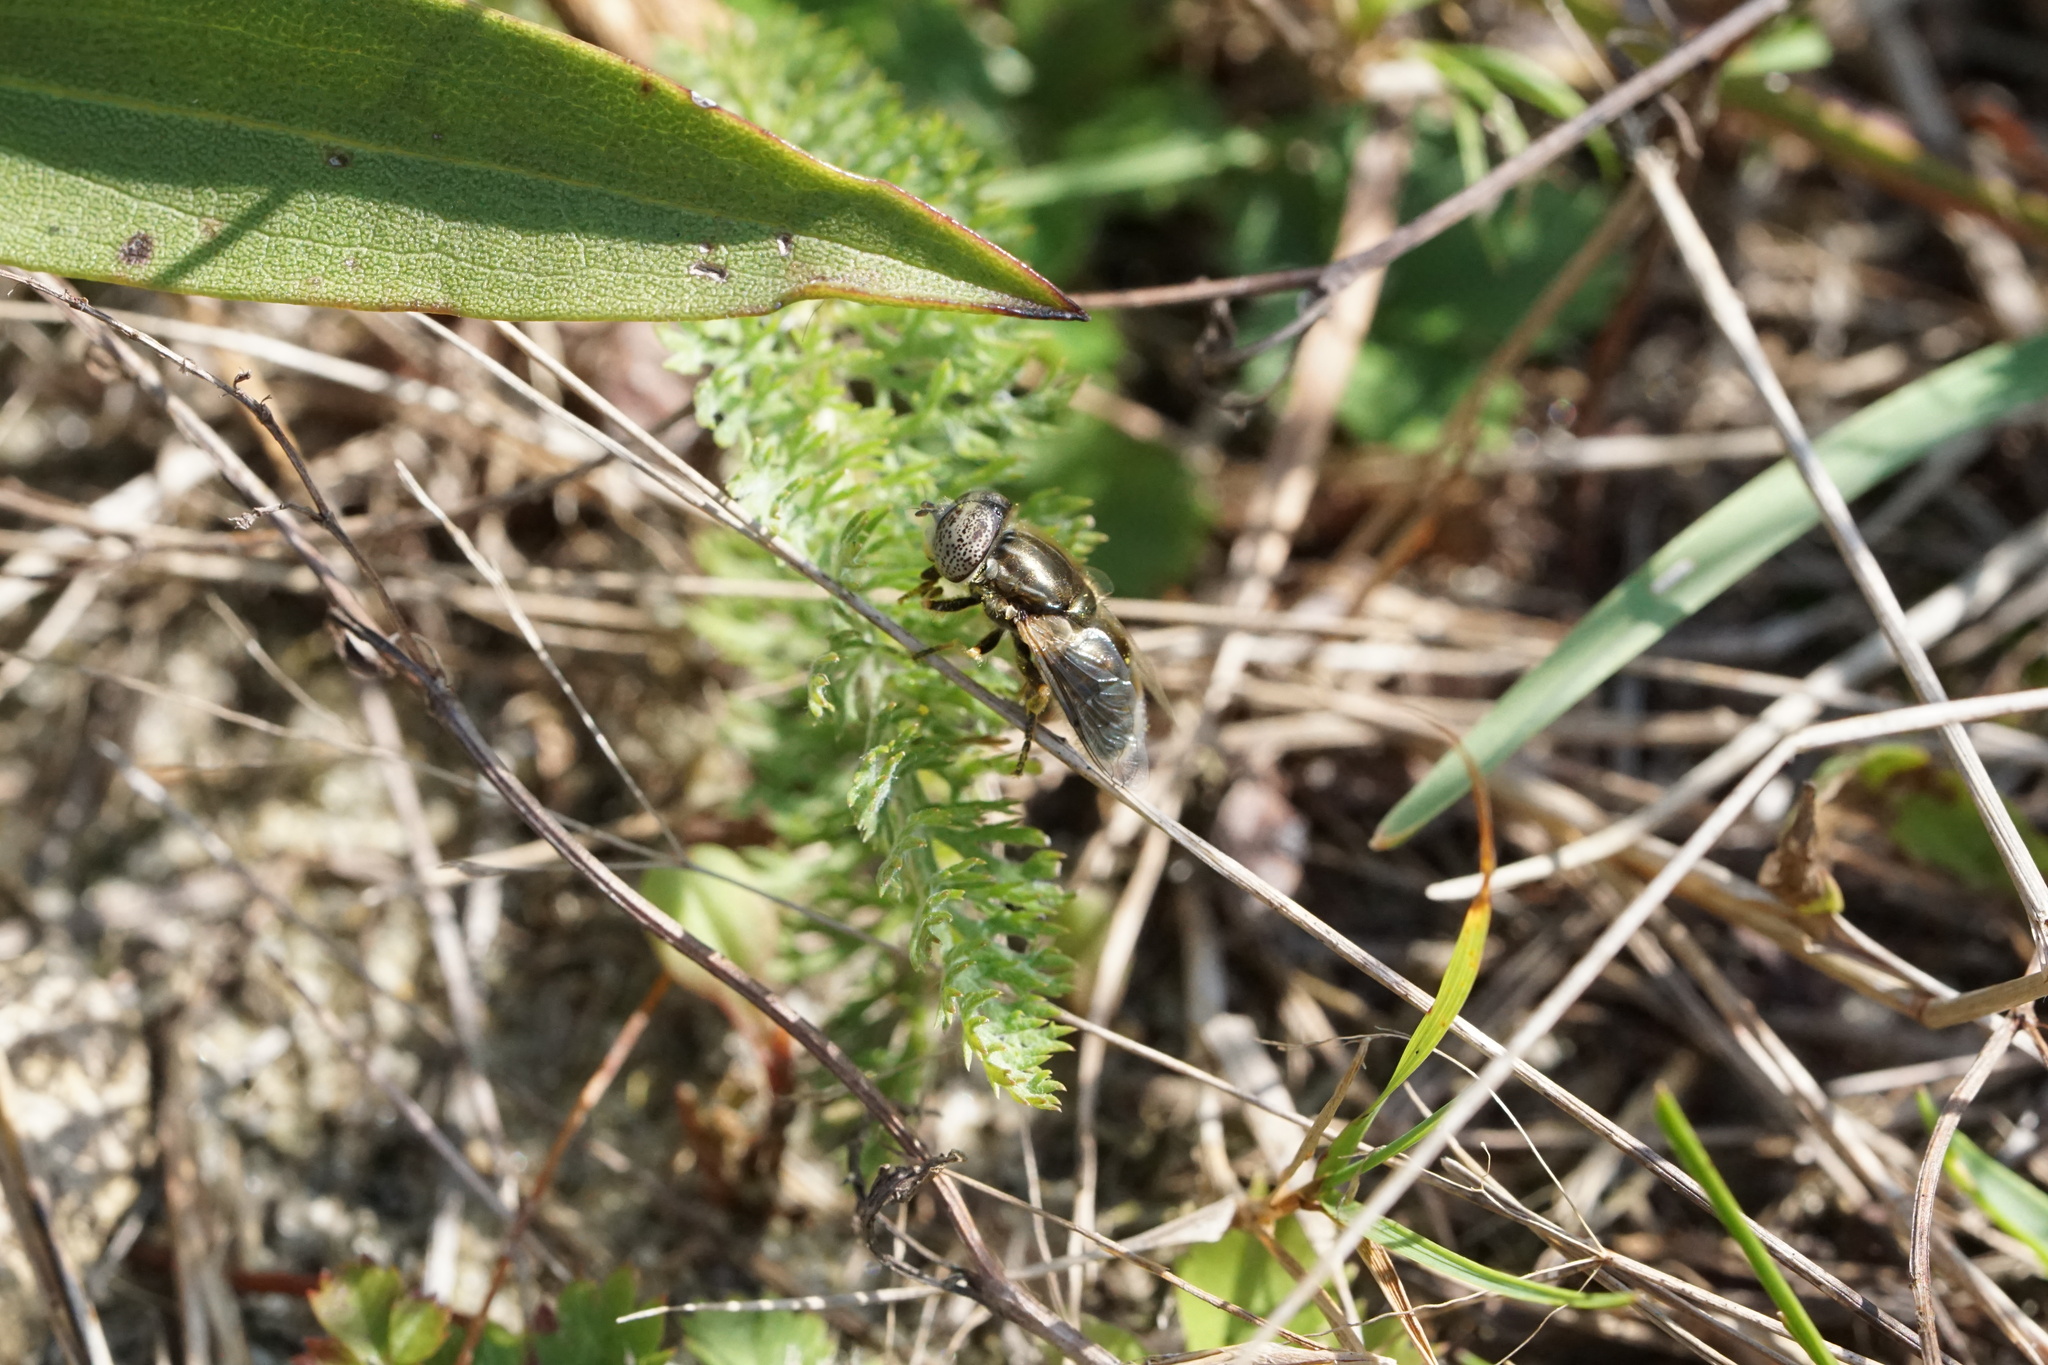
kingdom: Animalia
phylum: Arthropoda
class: Insecta
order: Diptera
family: Syrphidae
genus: Eristalinus
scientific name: Eristalinus aeneus
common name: Syrphid fly
